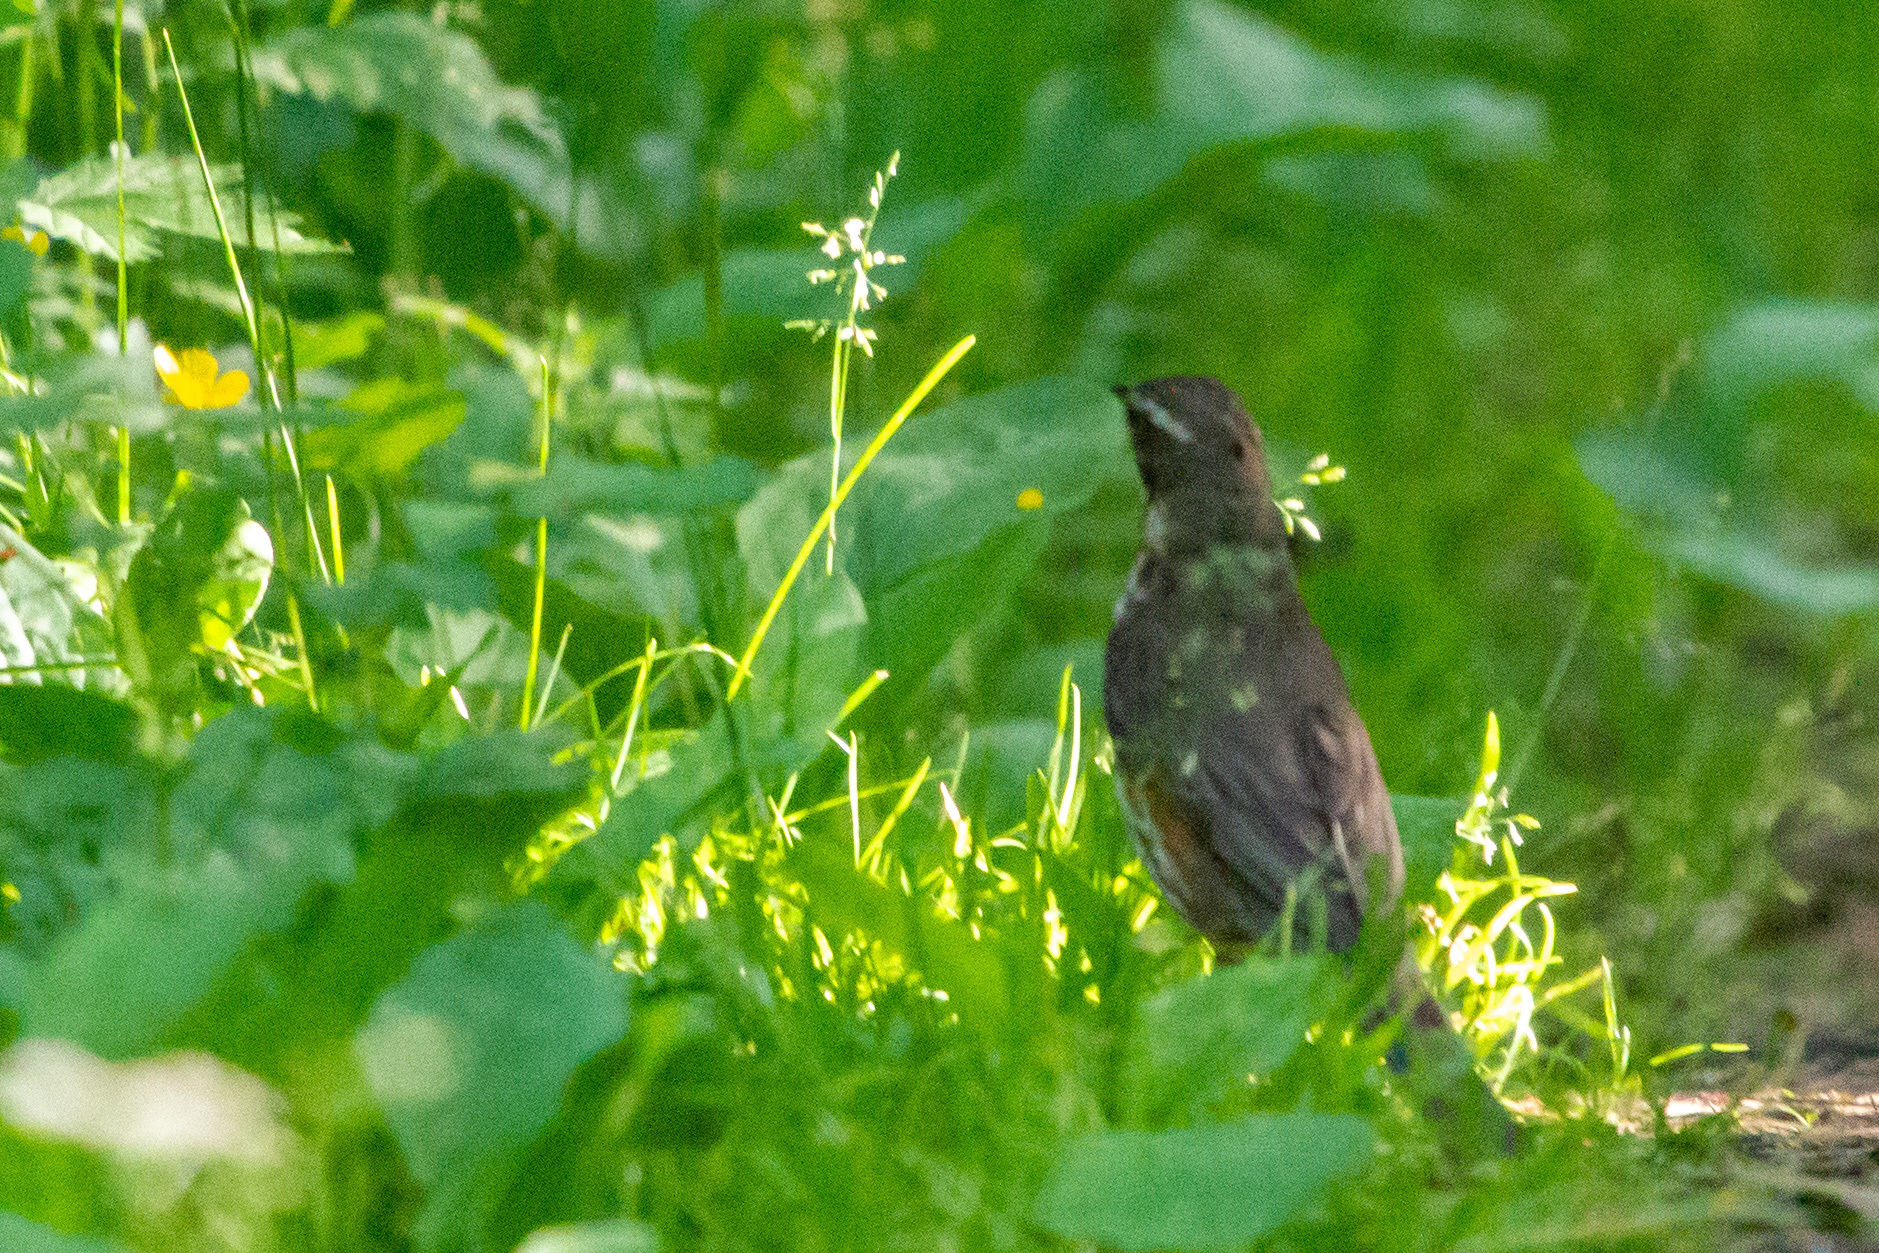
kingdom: Animalia
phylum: Chordata
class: Aves
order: Passeriformes
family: Turdidae
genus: Turdus
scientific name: Turdus iliacus
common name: Redwing
